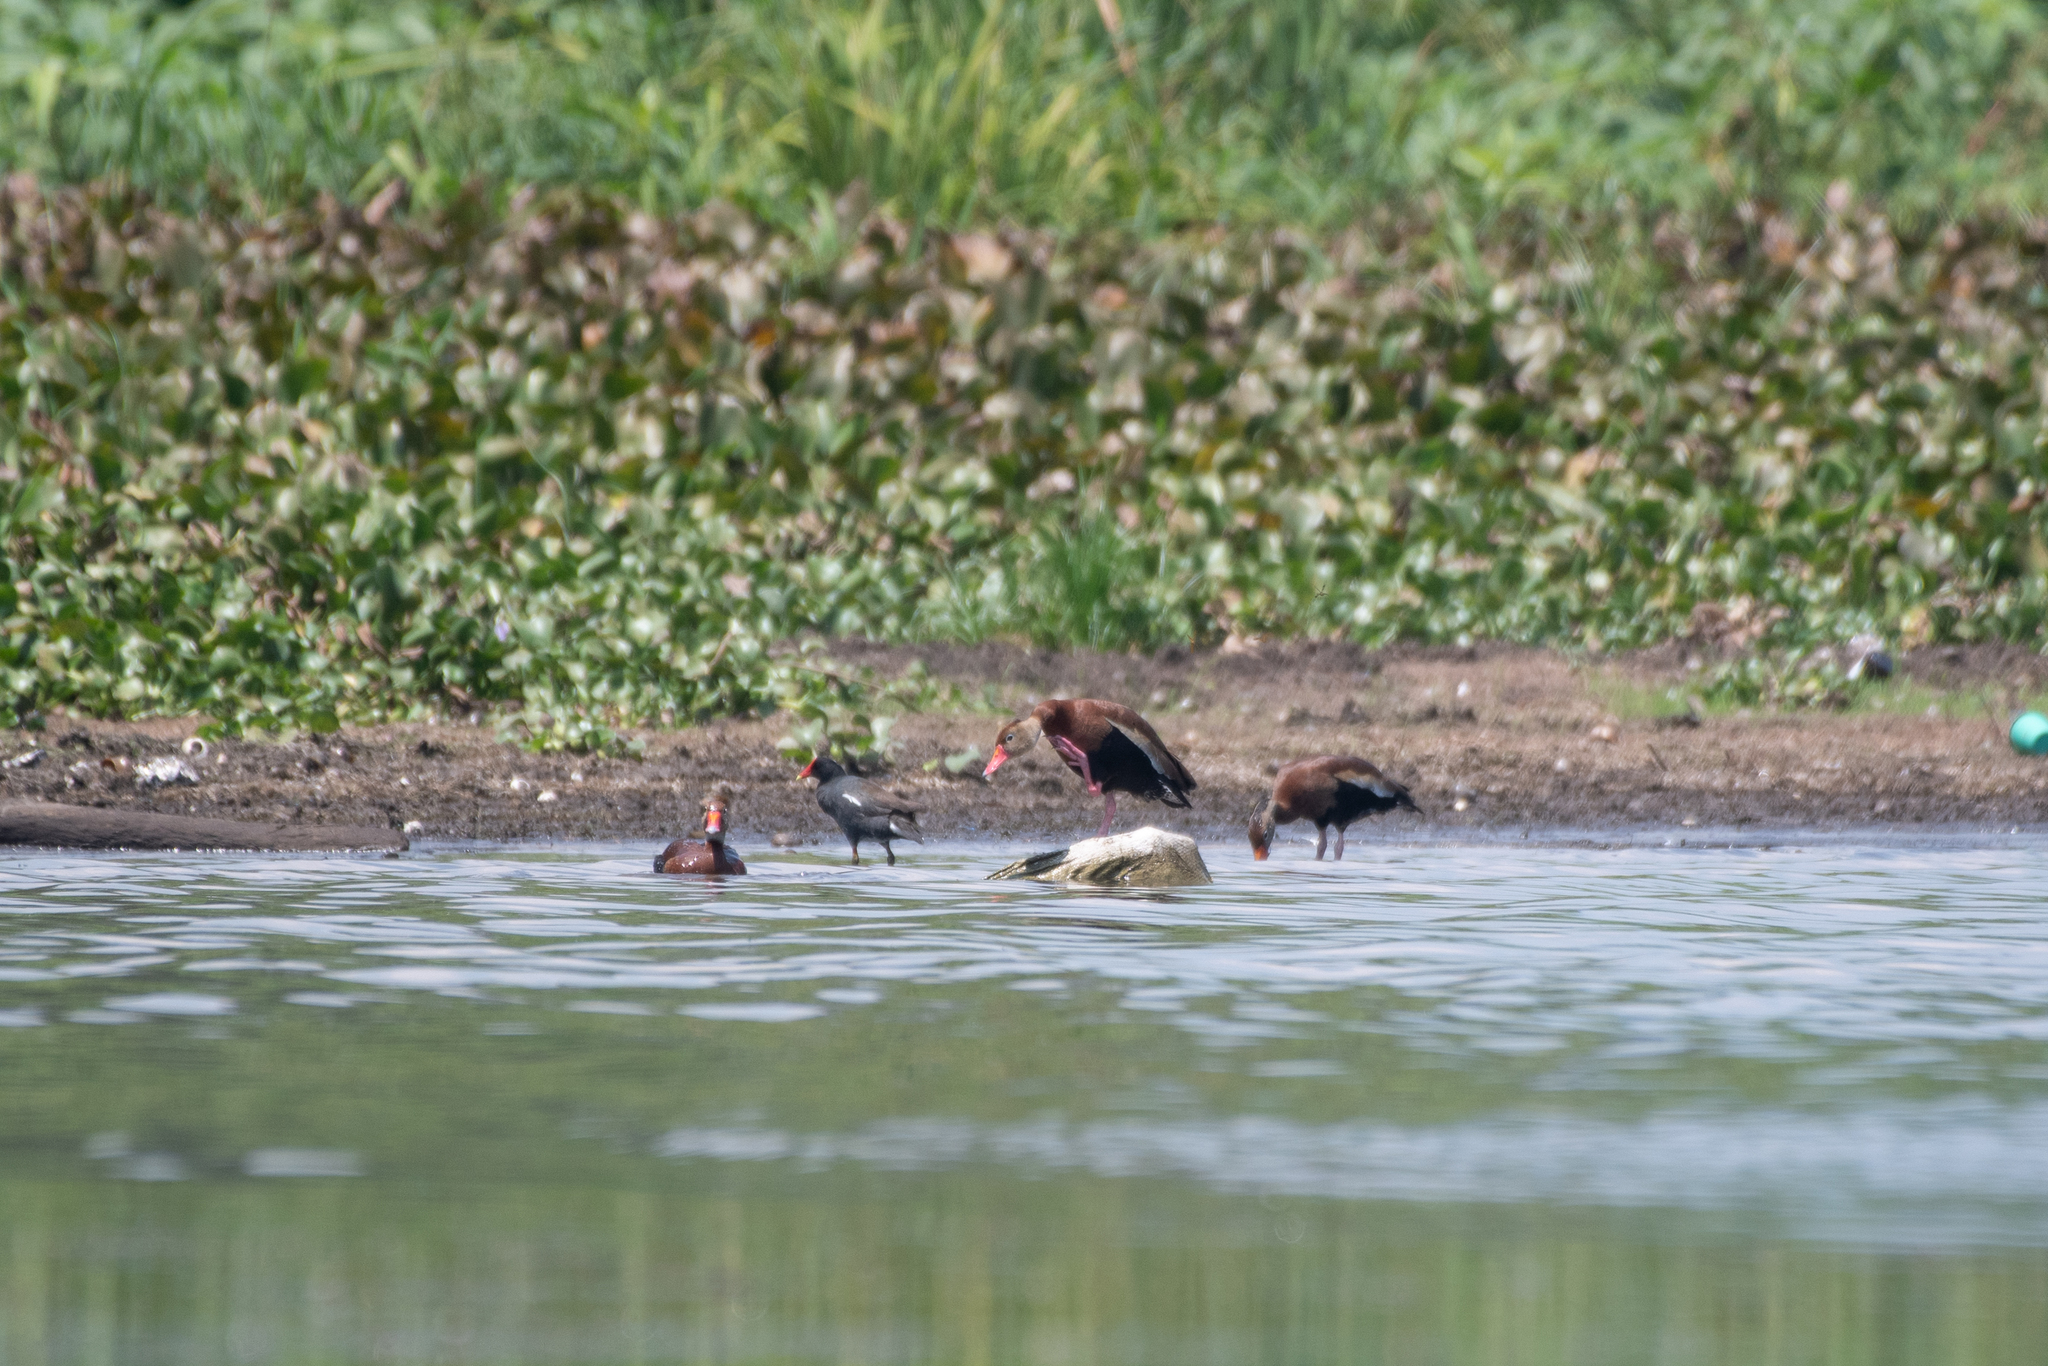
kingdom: Animalia
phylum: Chordata
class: Aves
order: Anseriformes
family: Anatidae
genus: Dendrocygna
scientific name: Dendrocygna autumnalis
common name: Black-bellied whistling duck
